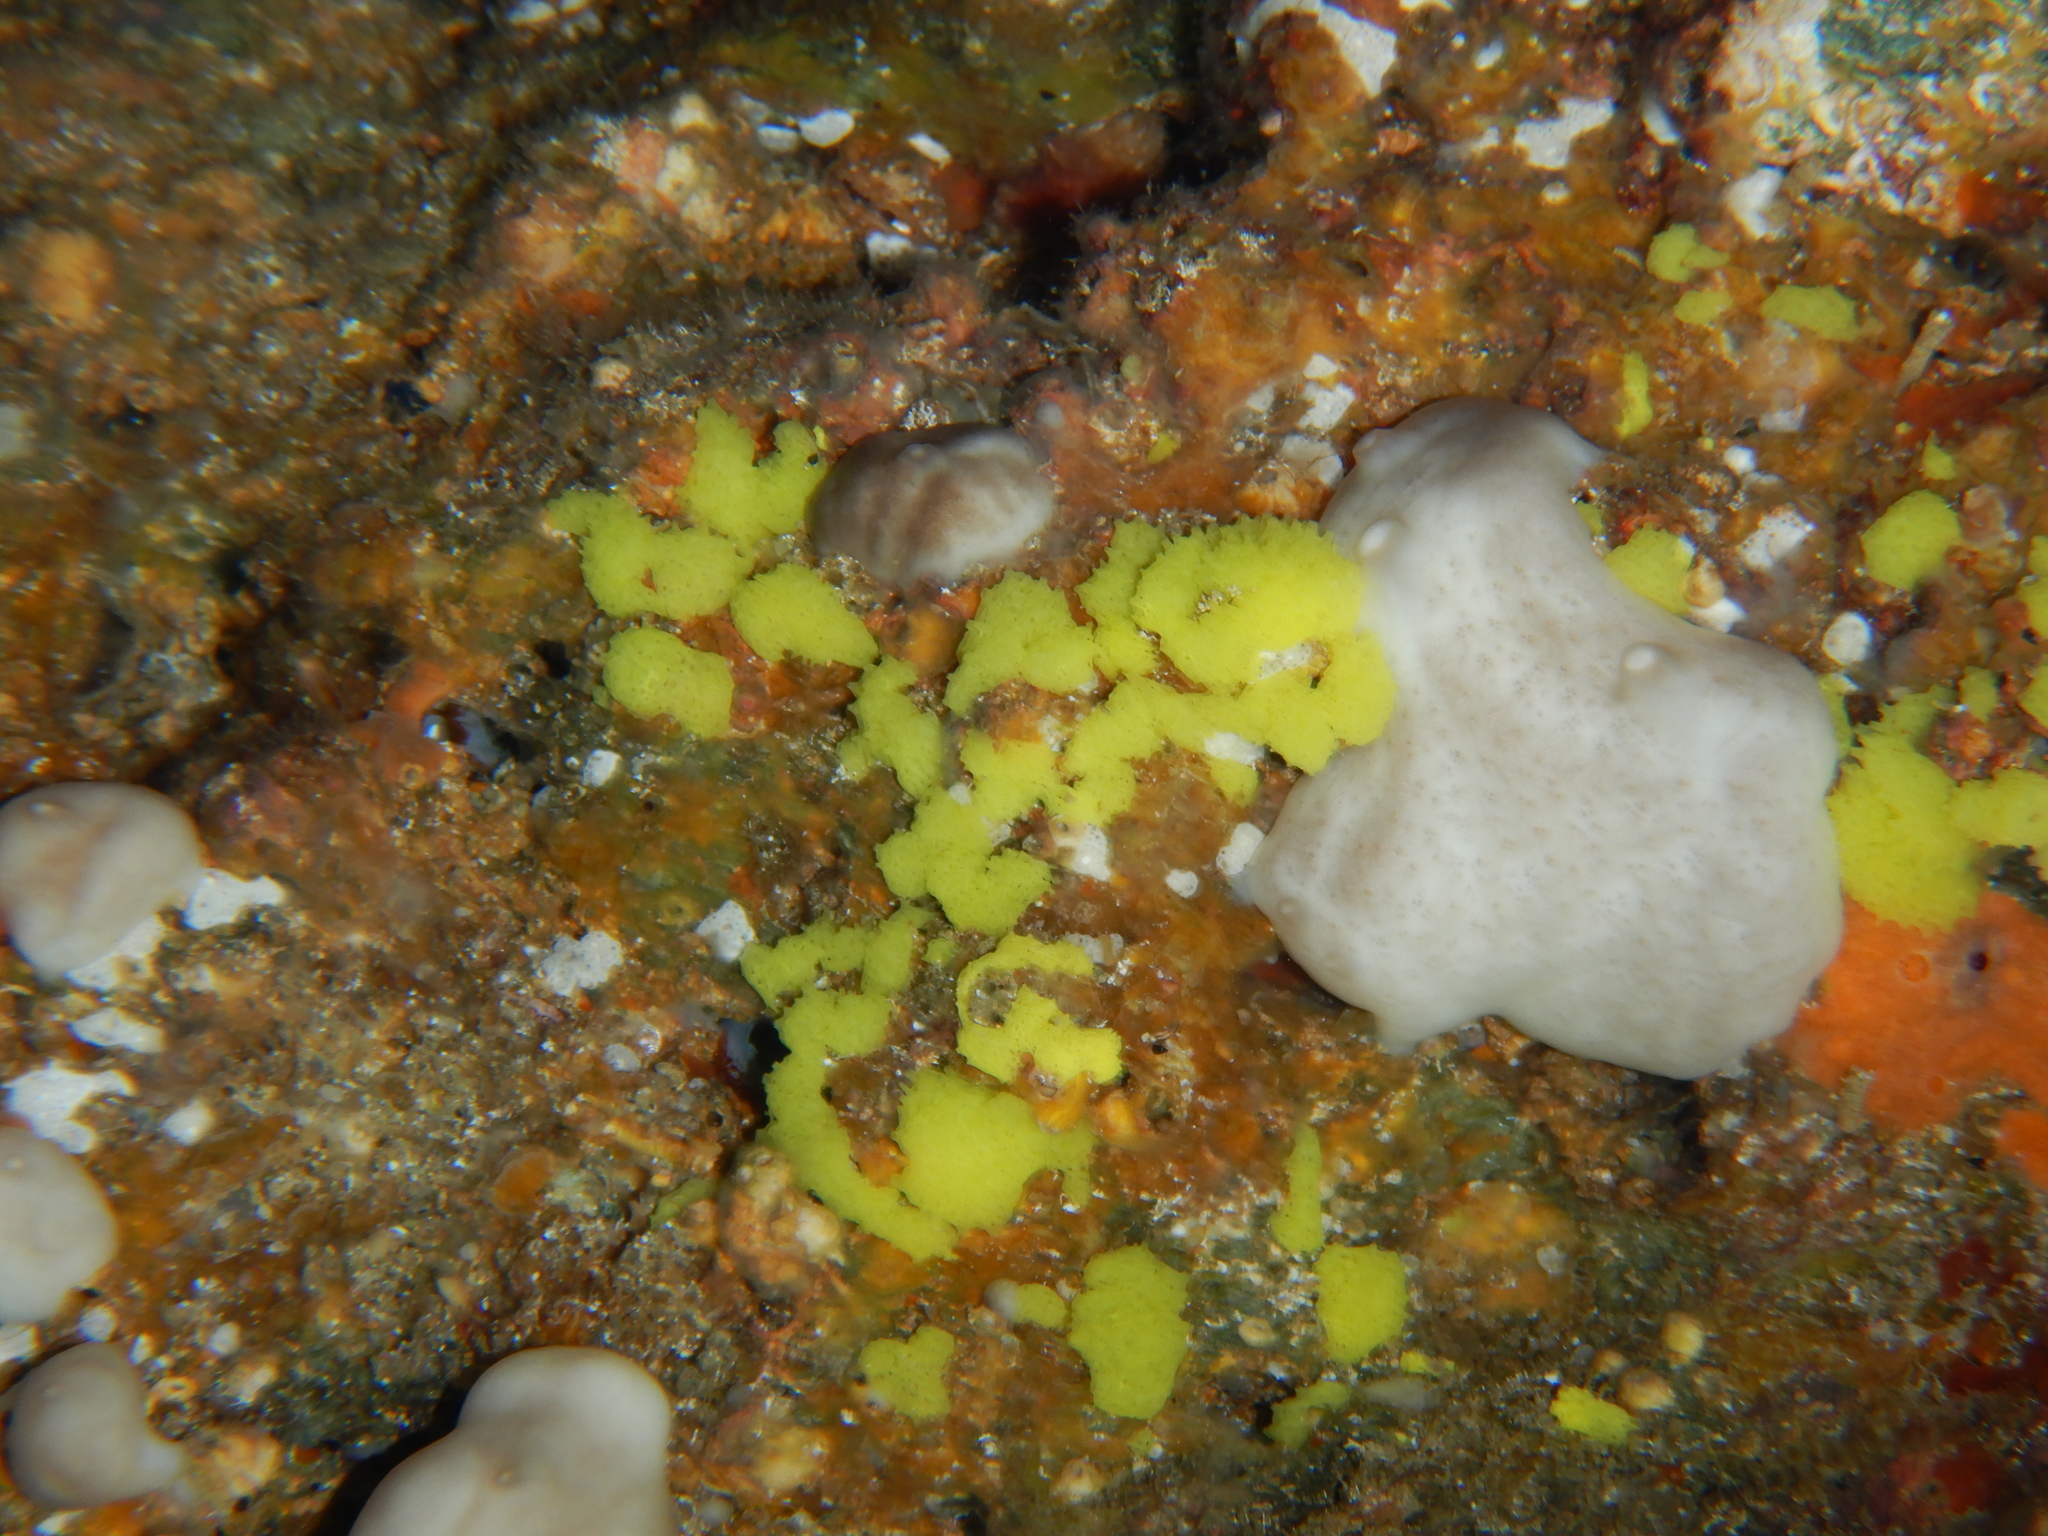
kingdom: Animalia
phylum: Porifera
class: Calcarea
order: Clathrinida
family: Clathrinidae
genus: Clathrina
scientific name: Clathrina clathrus
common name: Yellow clathrina
